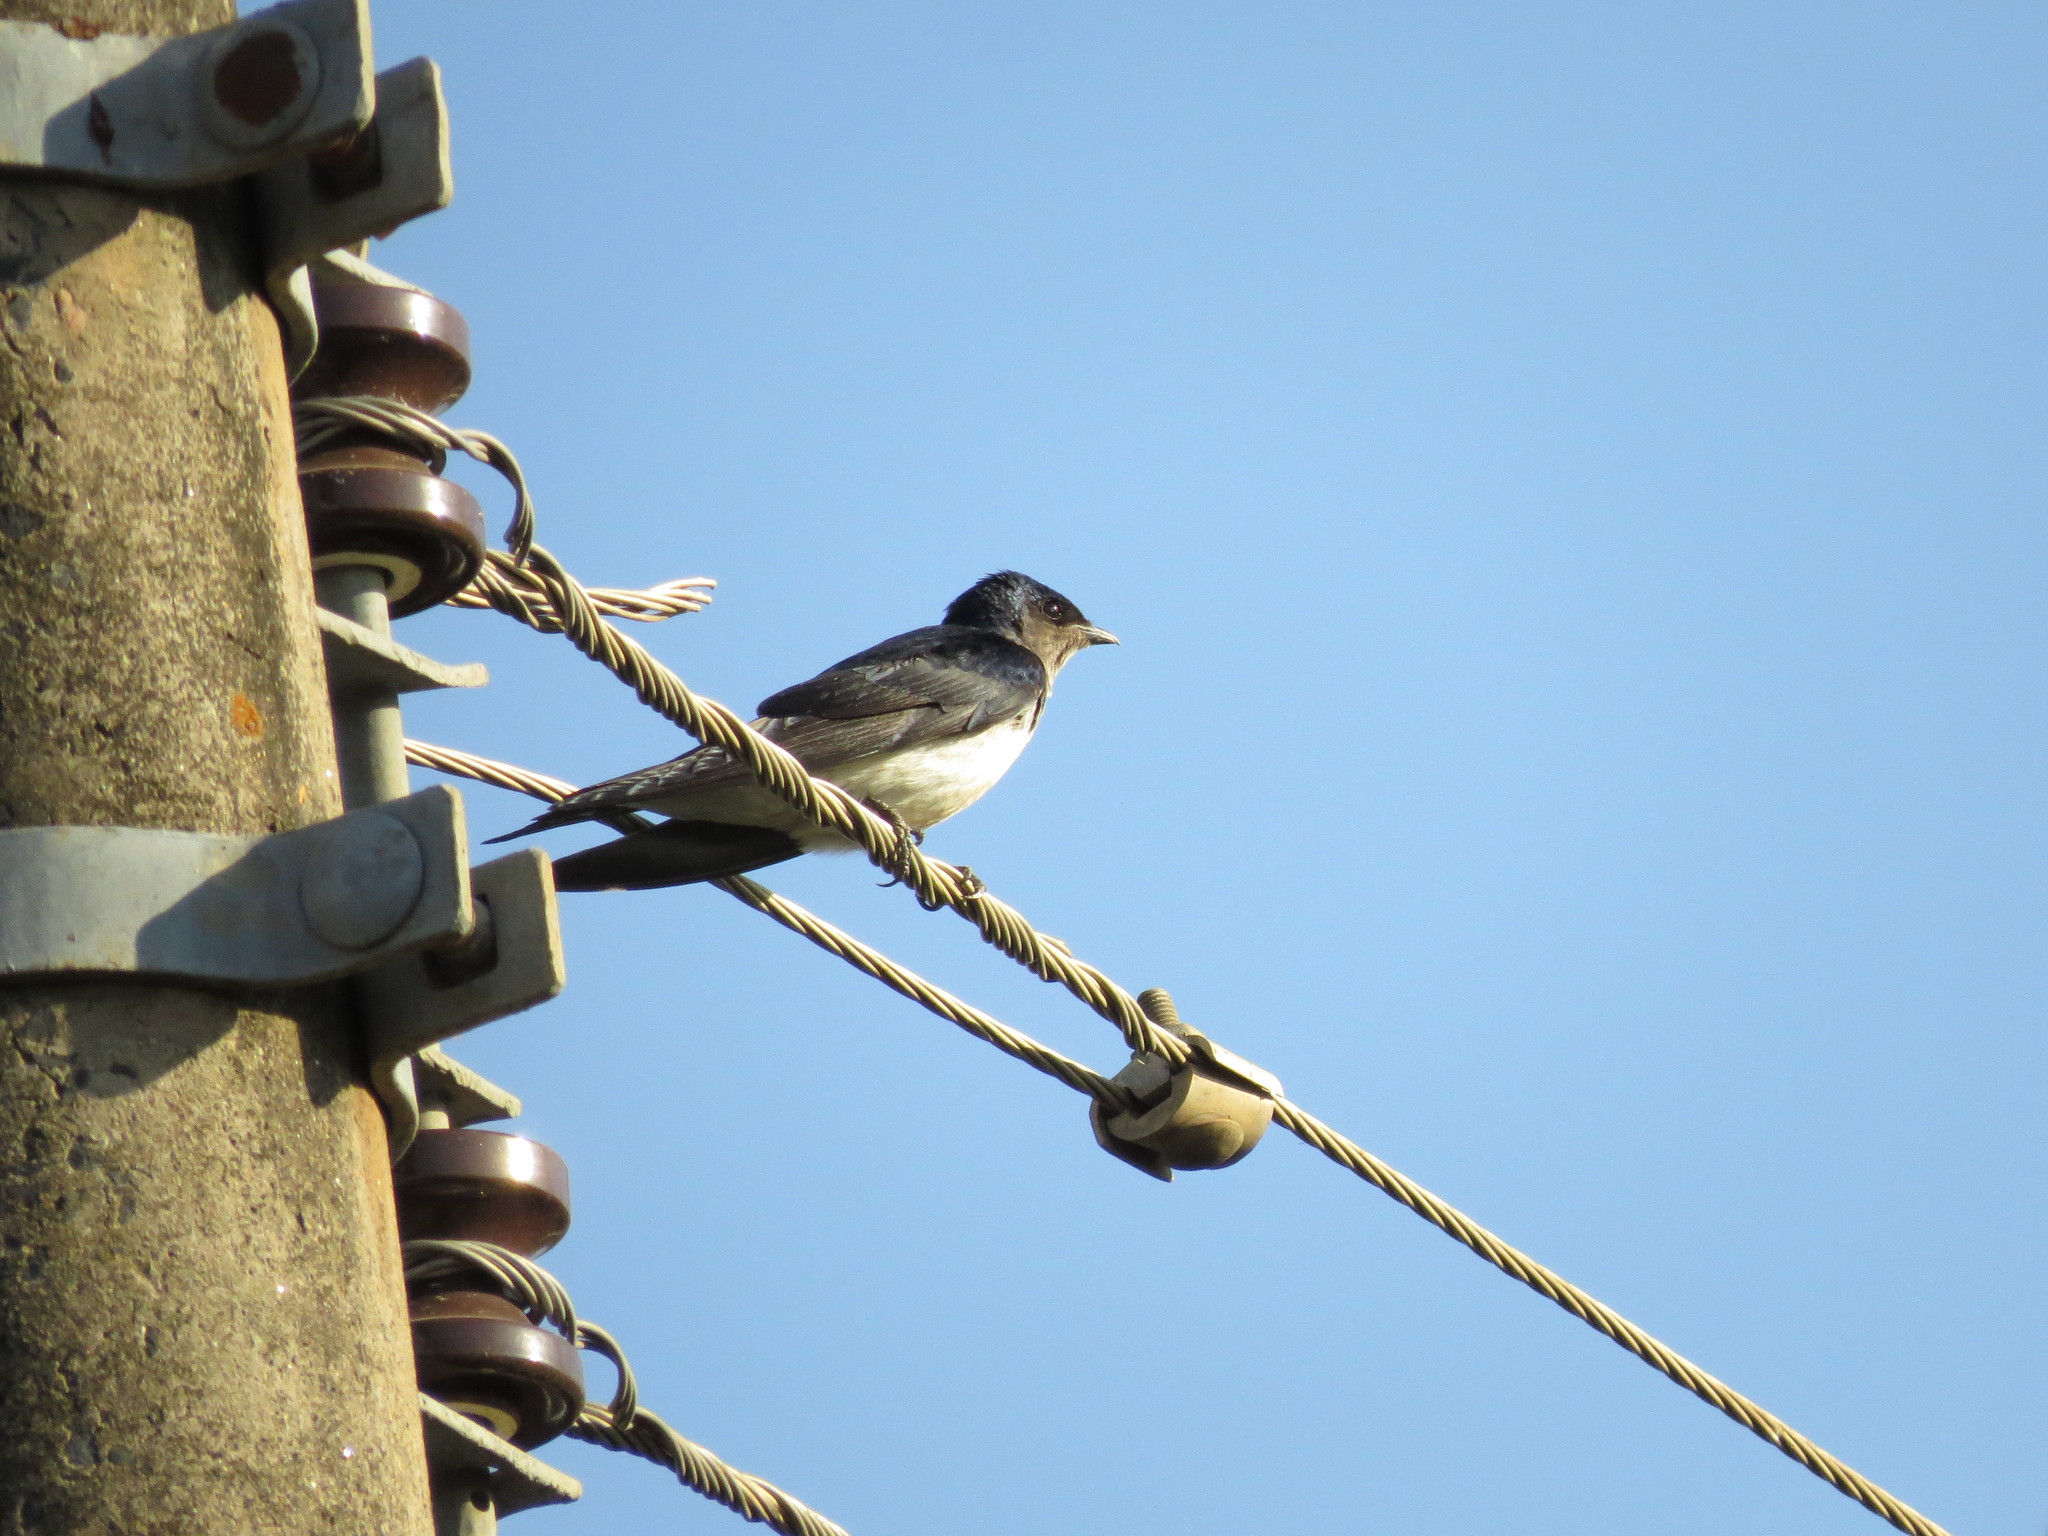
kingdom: Animalia
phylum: Chordata
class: Aves
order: Passeriformes
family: Hirundinidae
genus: Progne
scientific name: Progne chalybea
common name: Grey-breasted martin
